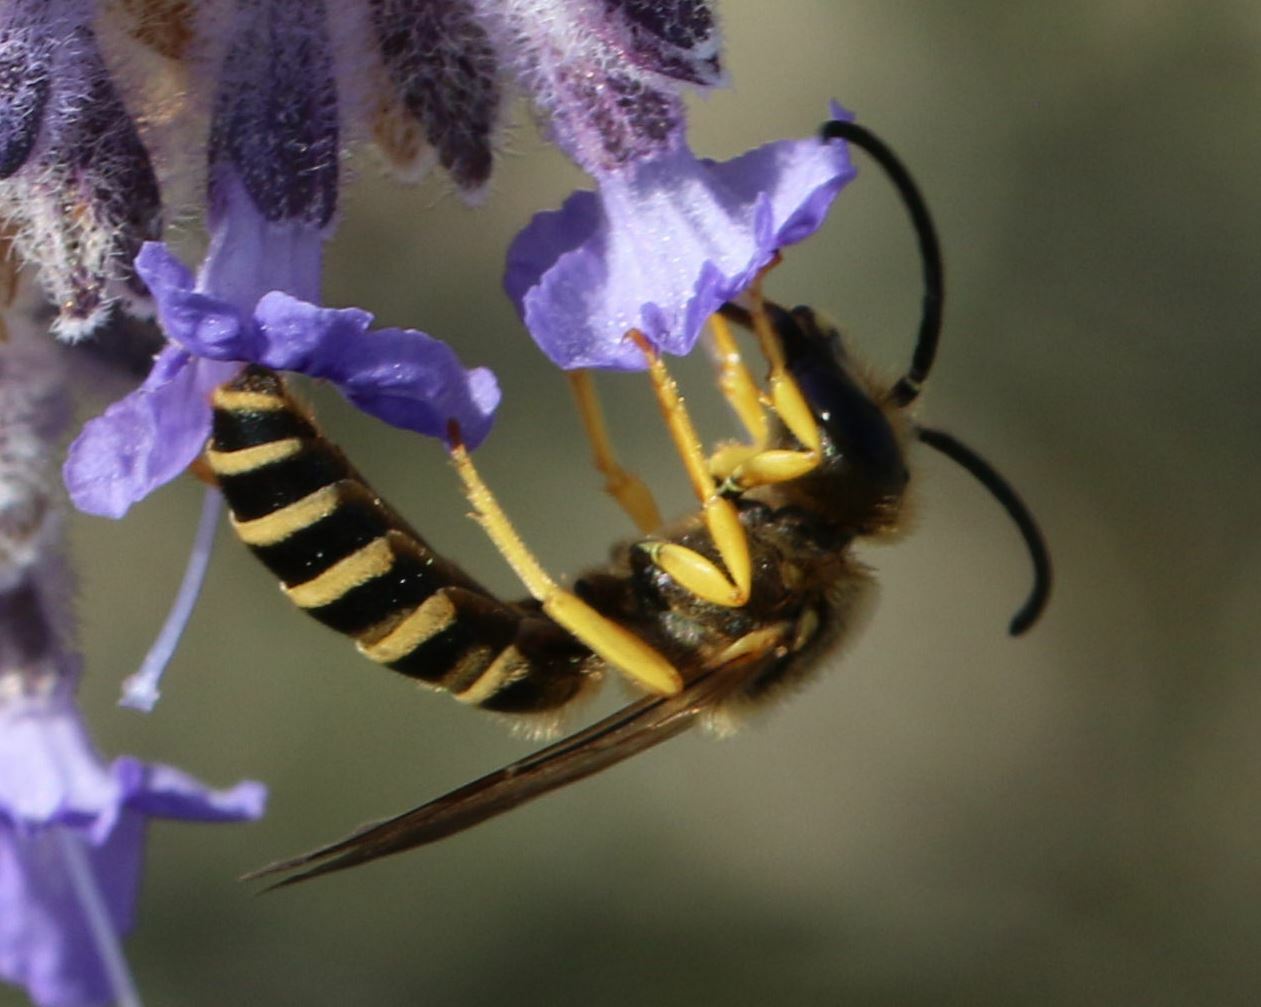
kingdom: Animalia
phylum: Arthropoda
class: Insecta
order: Hymenoptera
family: Halictidae
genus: Halictus
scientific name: Halictus scabiosae
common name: Great banded furrow bee
